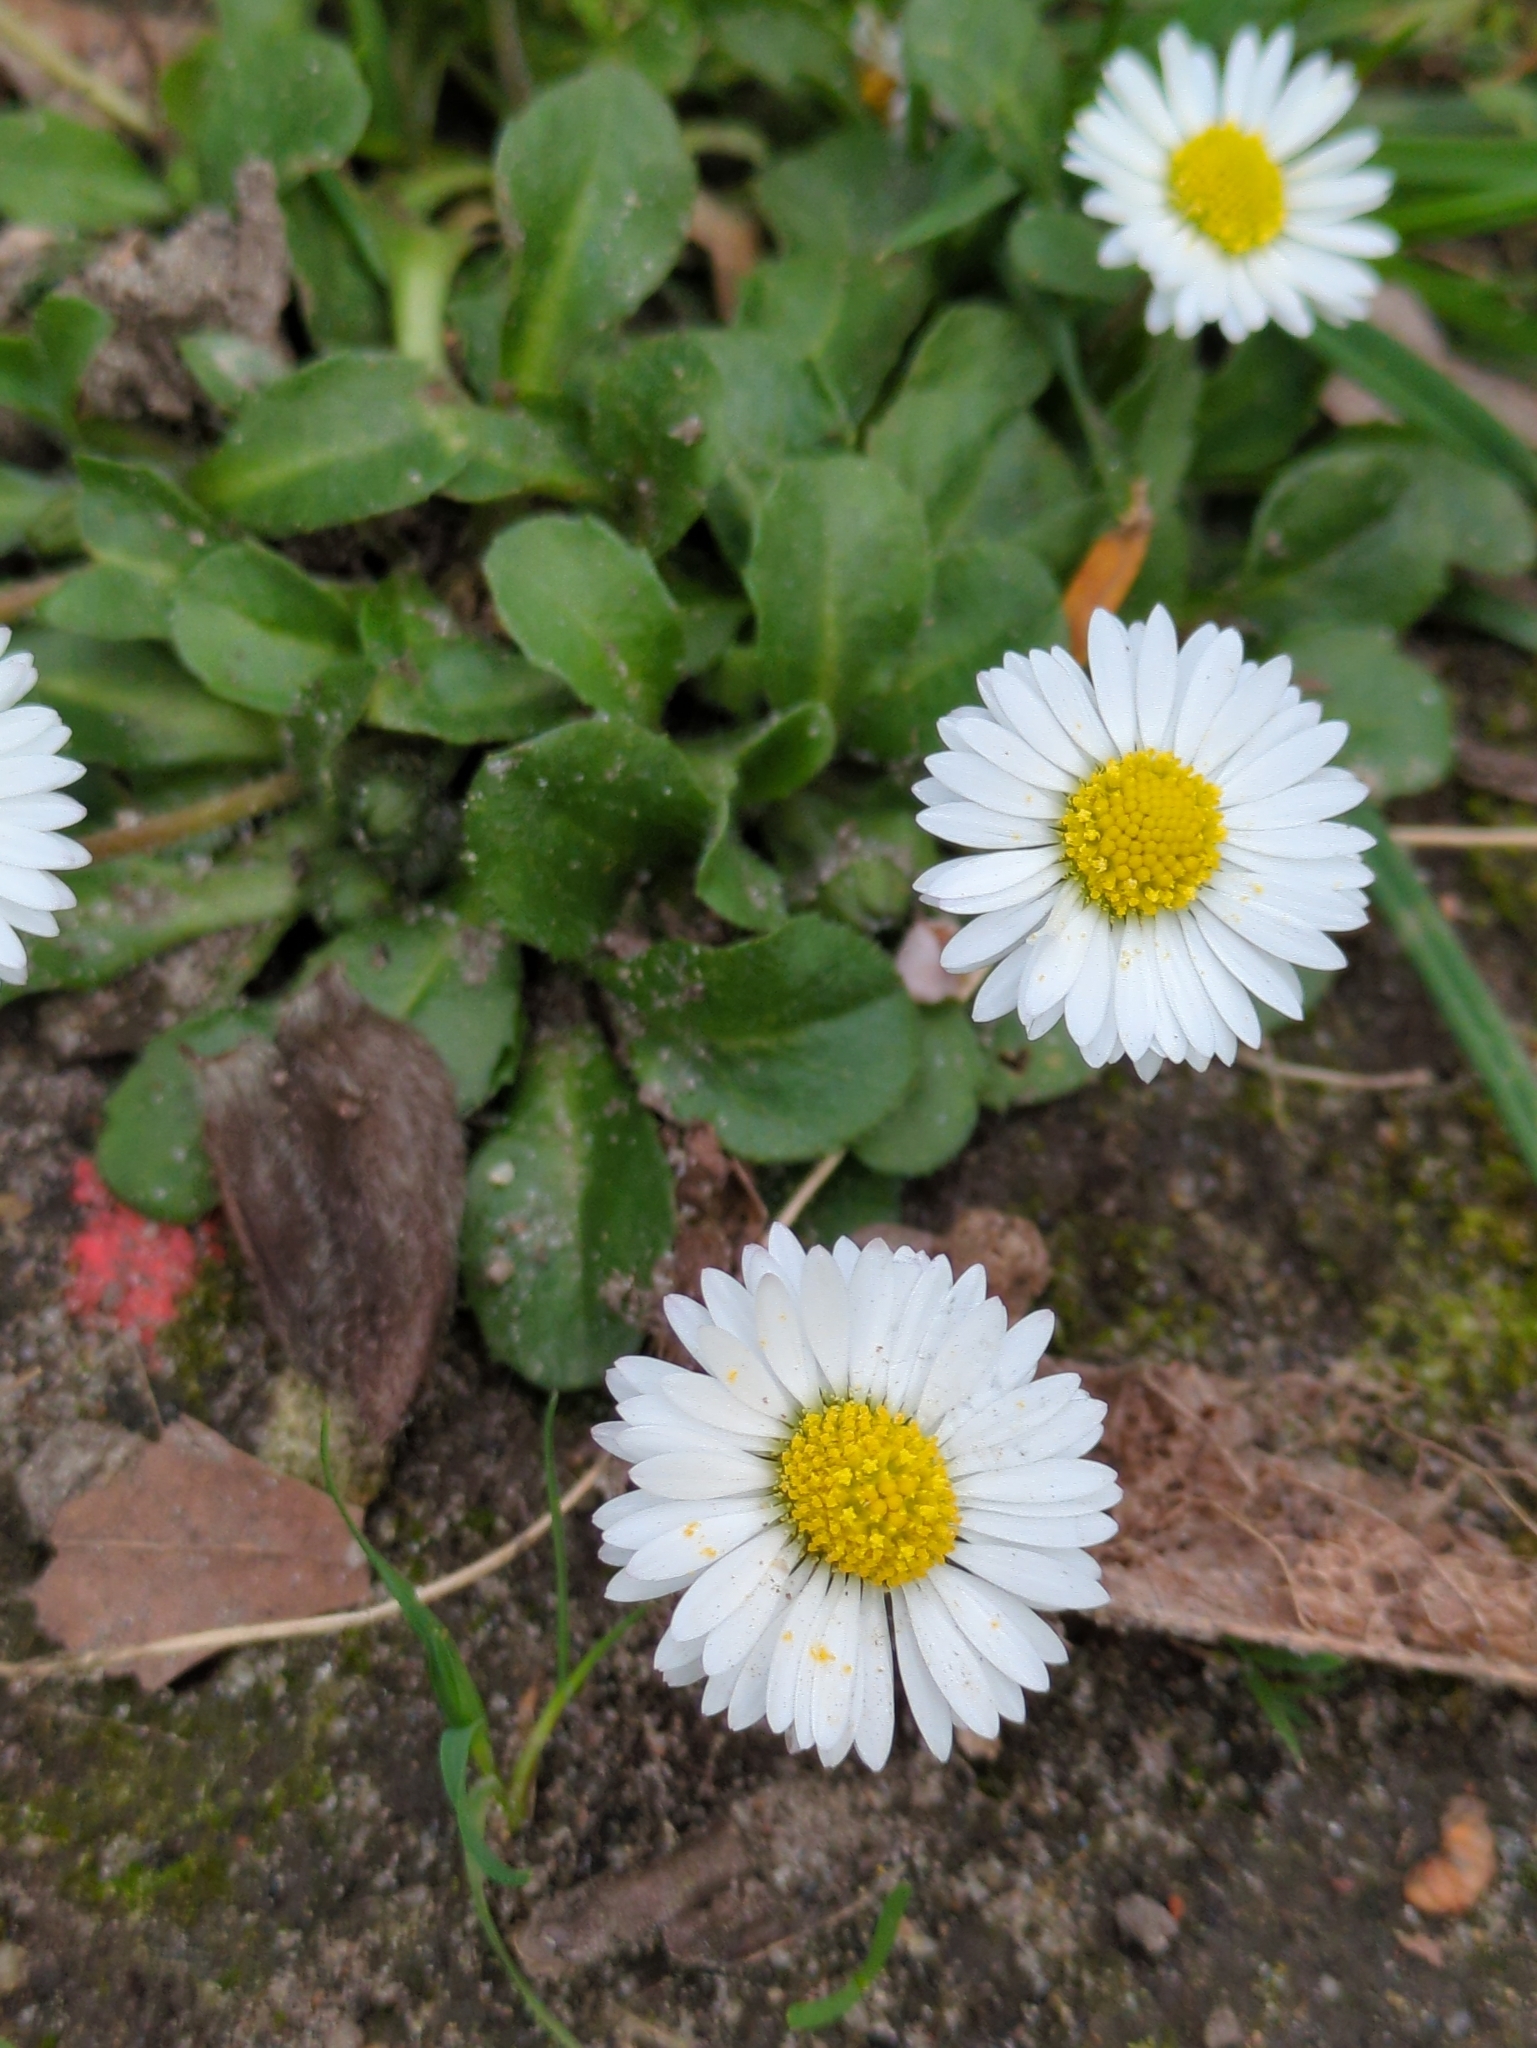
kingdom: Plantae
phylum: Tracheophyta
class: Magnoliopsida
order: Asterales
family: Asteraceae
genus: Bellis
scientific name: Bellis perennis
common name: Lawndaisy
